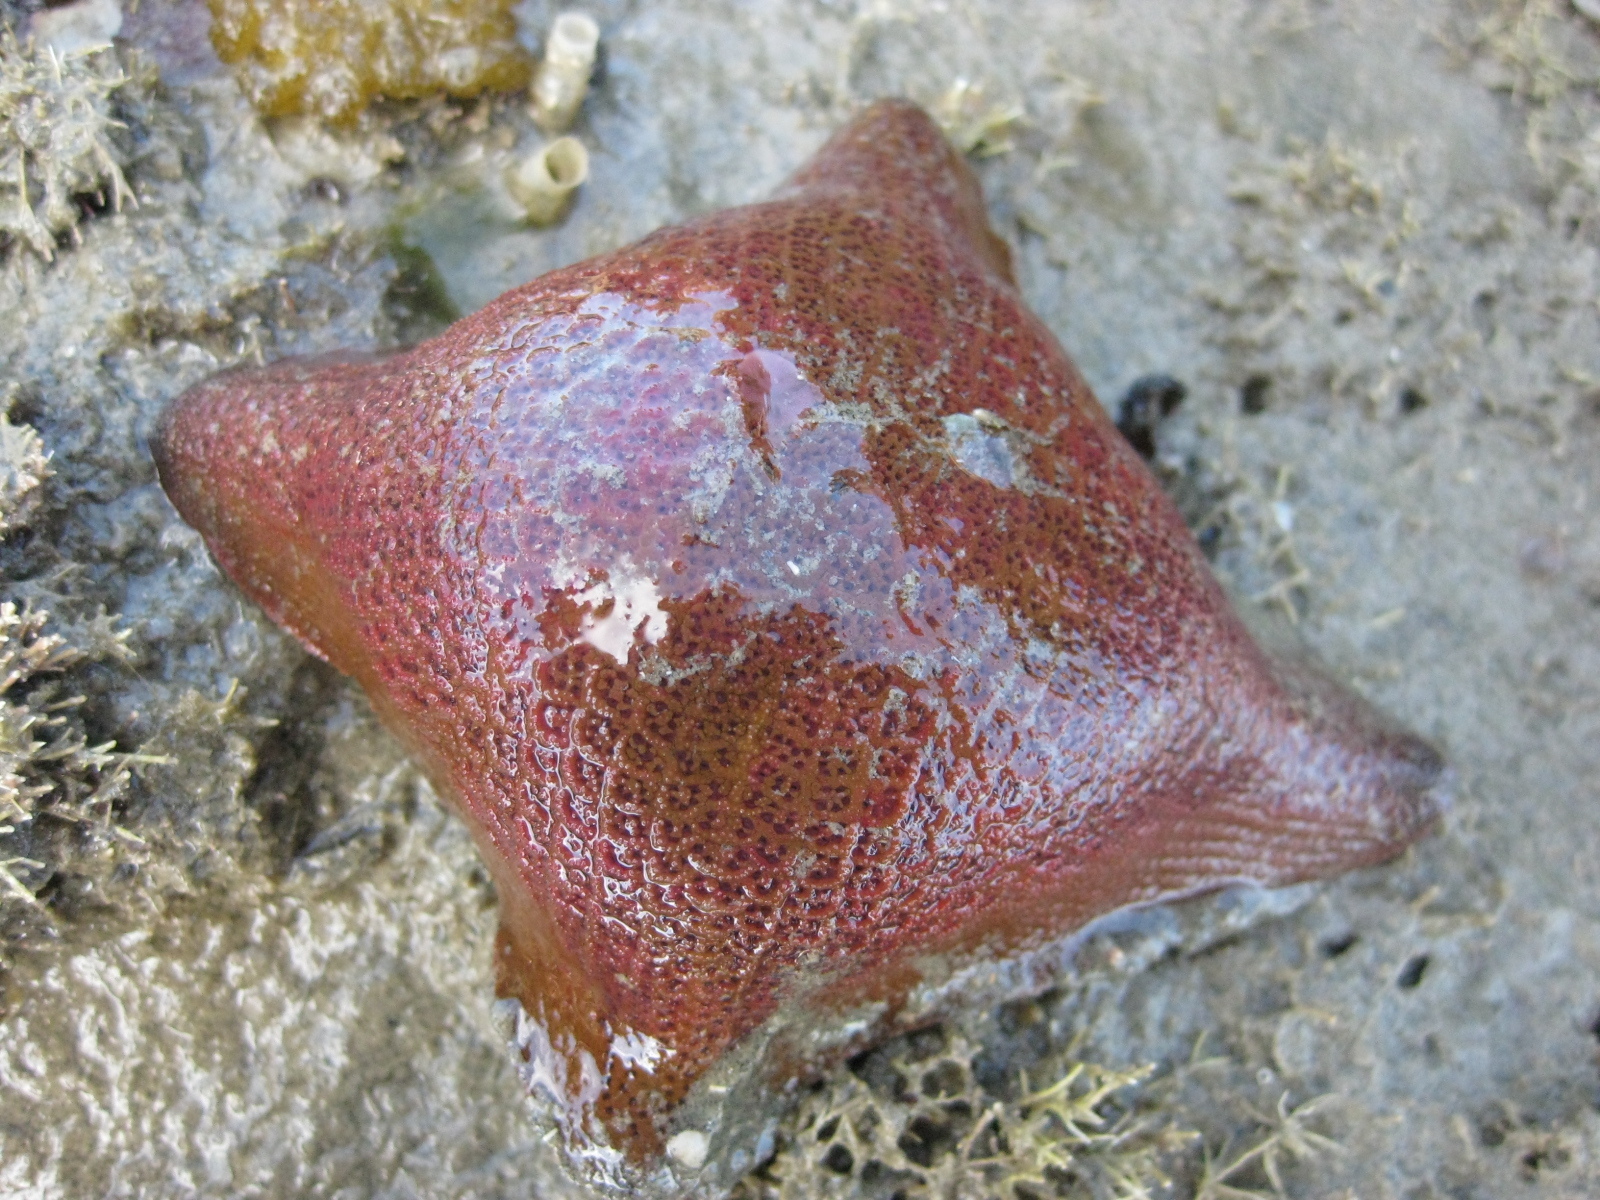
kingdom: Animalia
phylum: Echinodermata
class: Asteroidea
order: Valvatida
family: Asterinidae
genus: Patiriella
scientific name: Patiriella regularis
